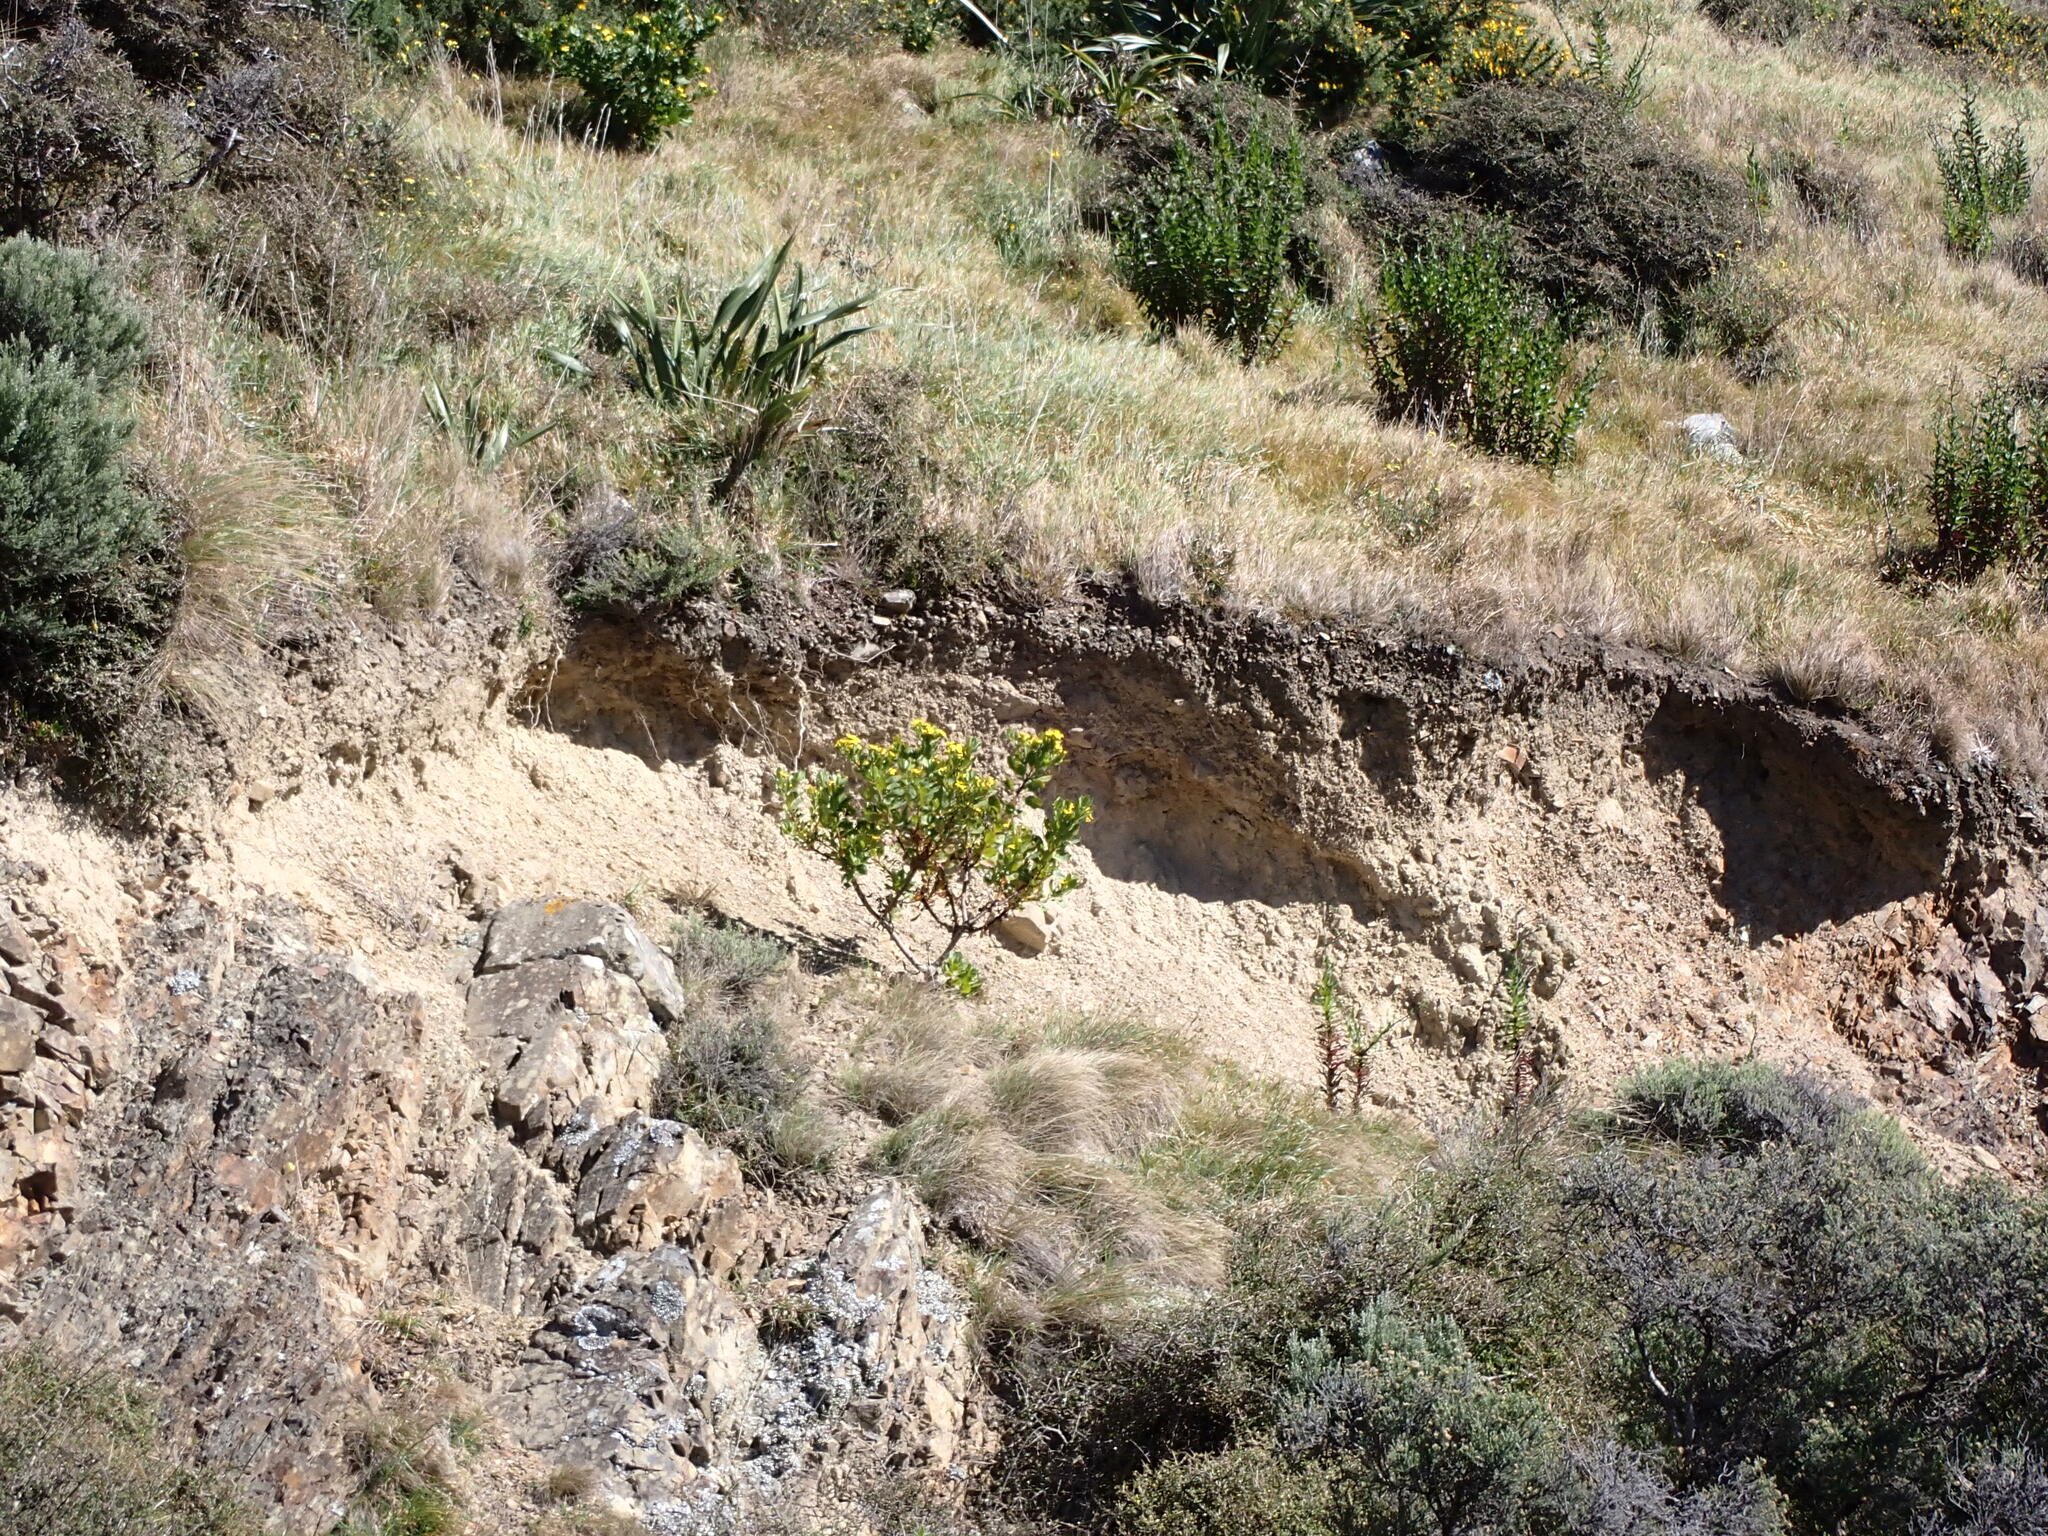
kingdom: Plantae
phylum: Tracheophyta
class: Magnoliopsida
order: Asterales
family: Asteraceae
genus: Osteospermum
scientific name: Osteospermum moniliferum
